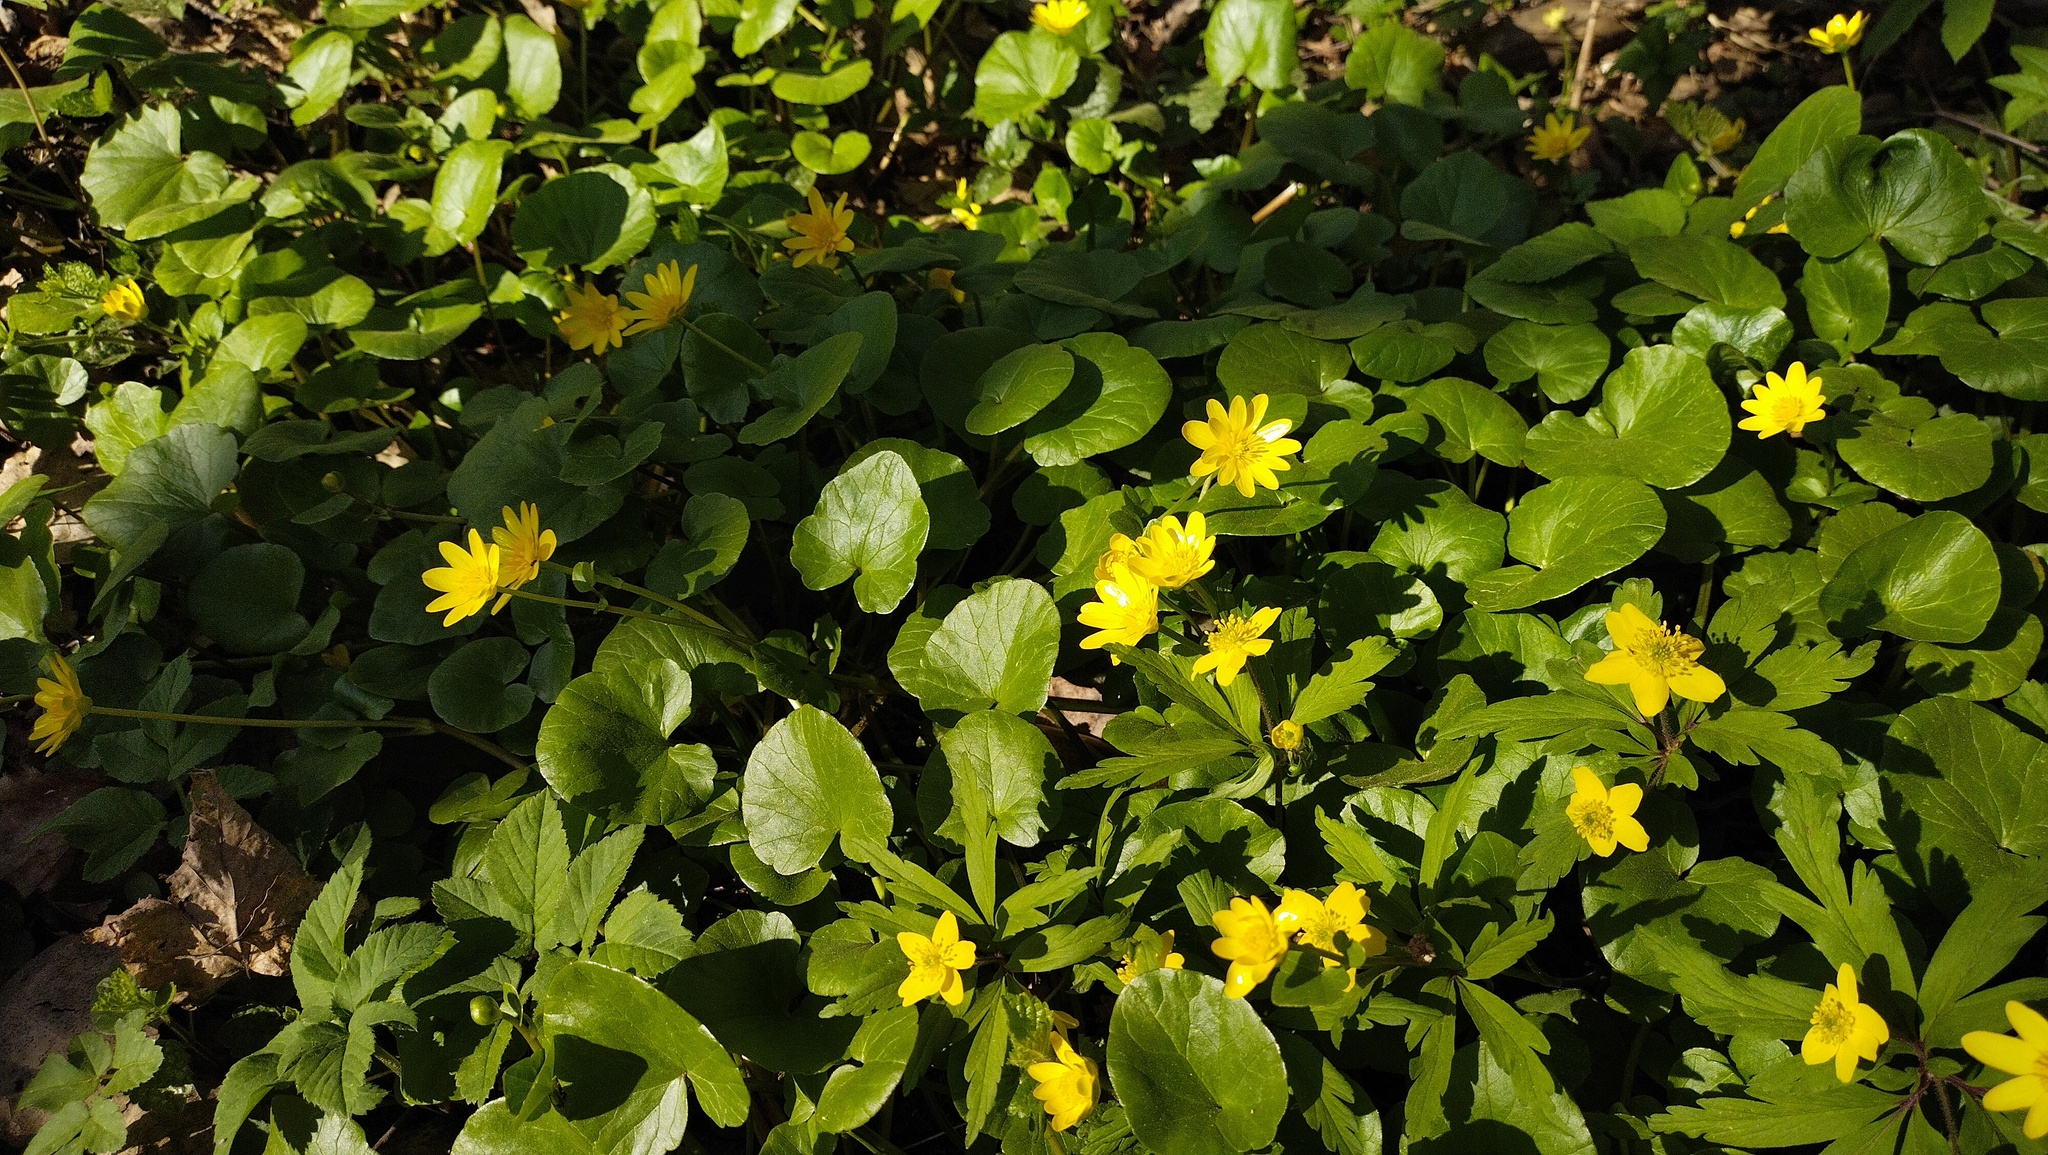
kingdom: Plantae
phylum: Tracheophyta
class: Magnoliopsida
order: Ranunculales
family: Ranunculaceae
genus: Ficaria
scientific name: Ficaria verna
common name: Lesser celandine
